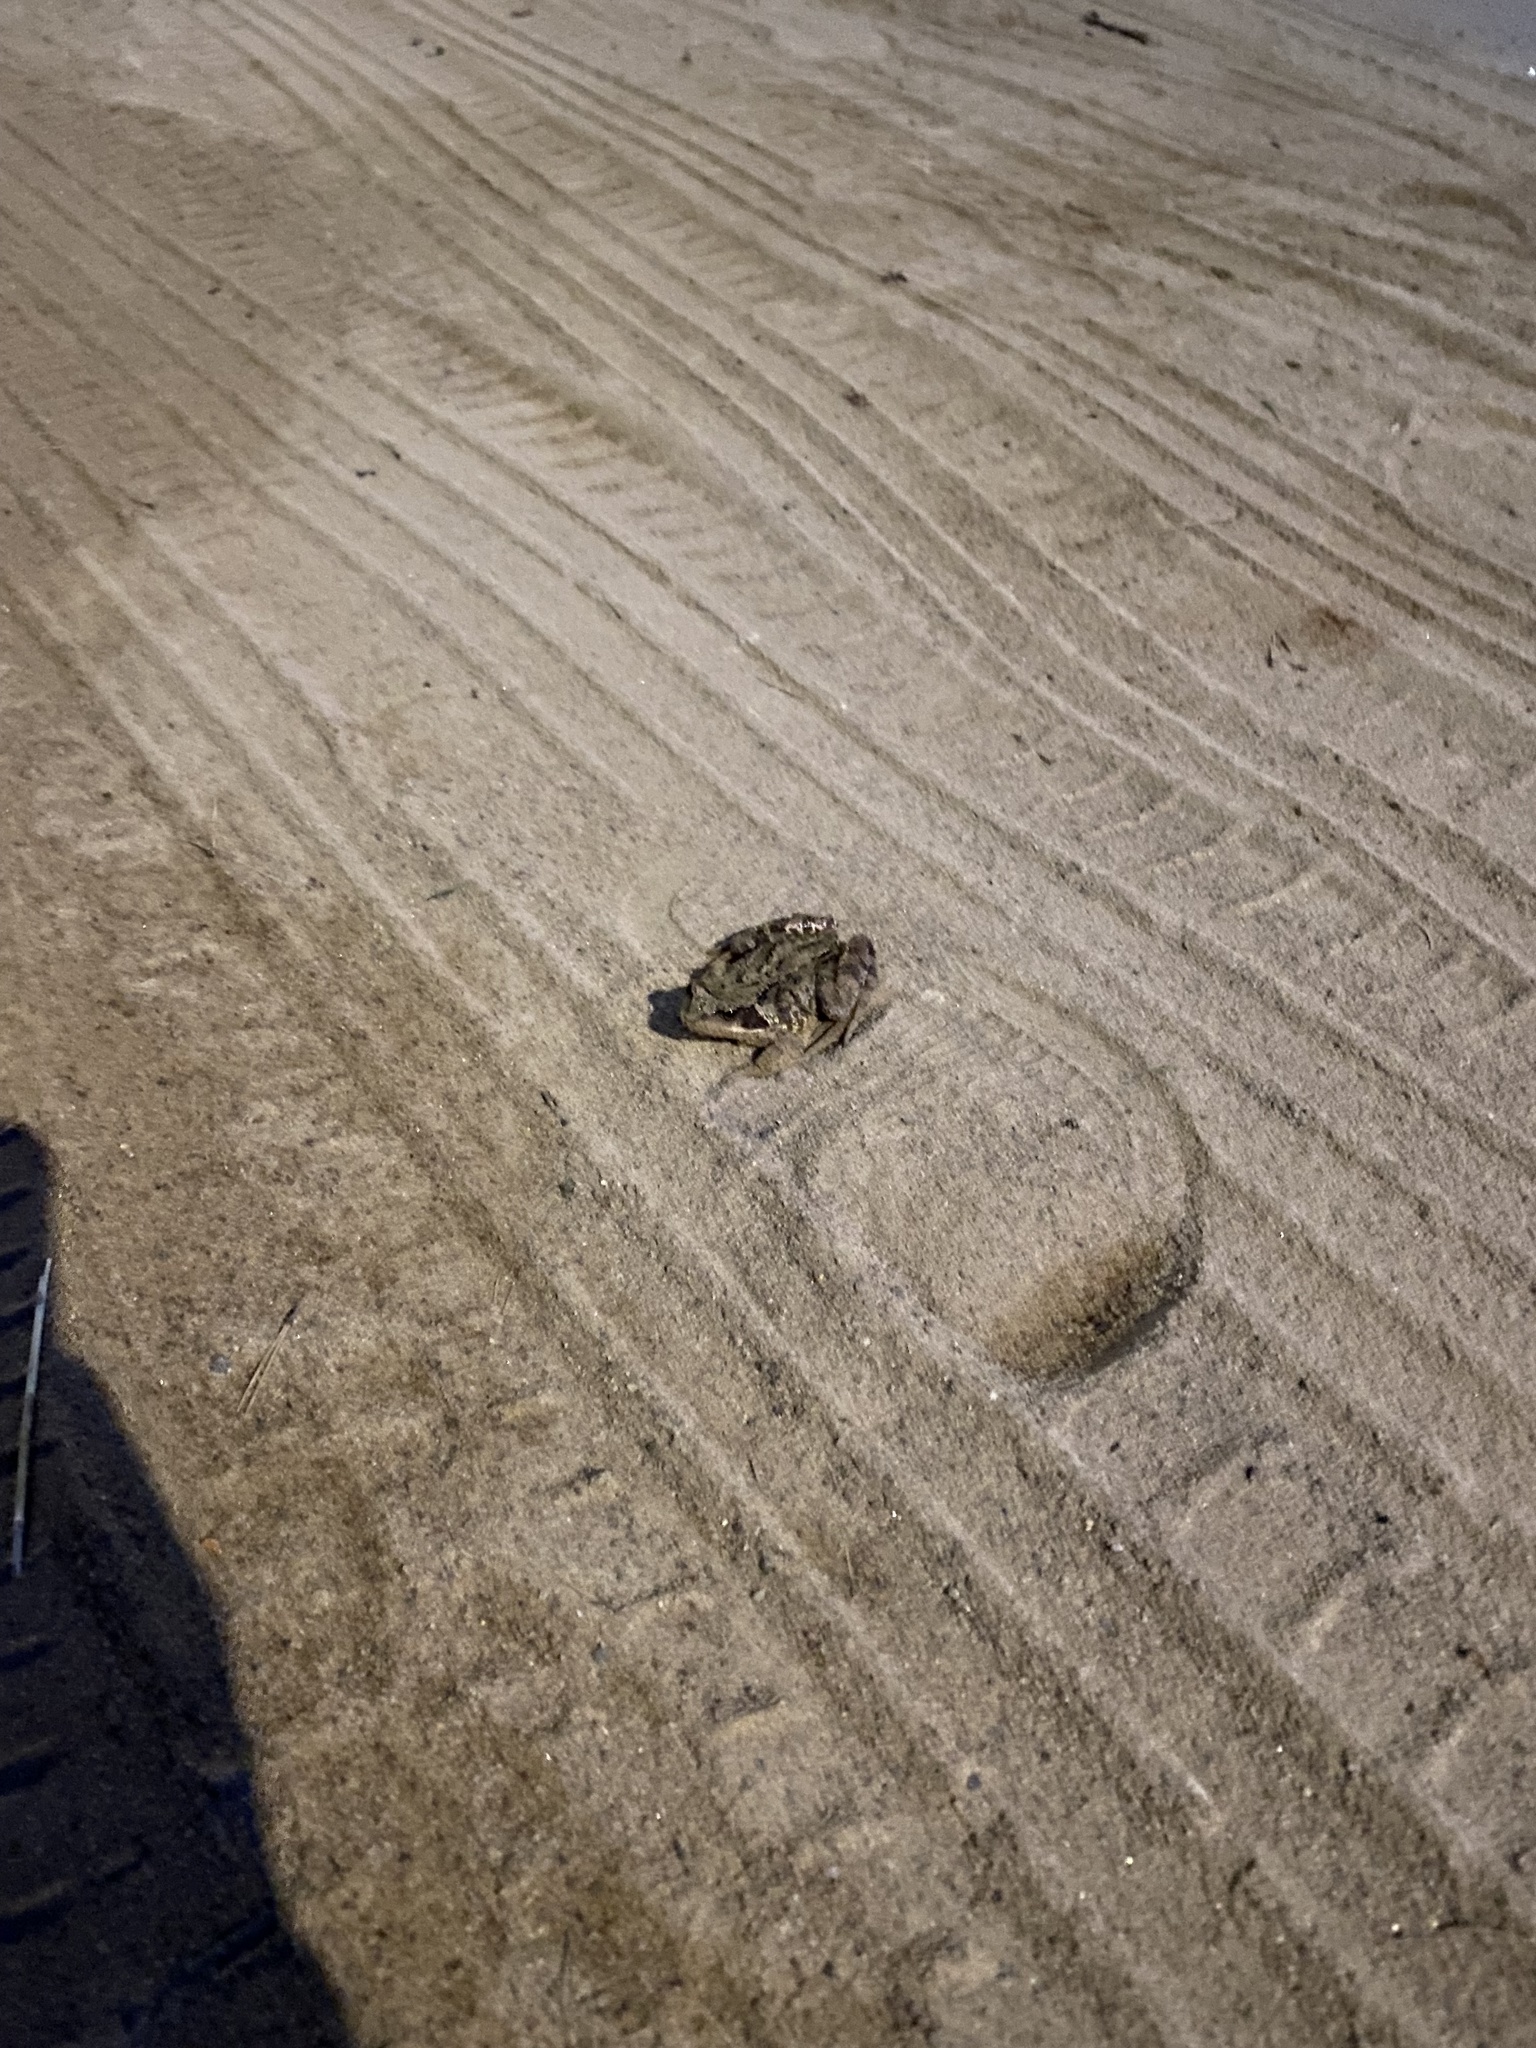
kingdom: Animalia
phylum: Chordata
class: Amphibia
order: Anura
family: Ranidae
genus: Rana
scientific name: Rana temporaria
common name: Common frog
